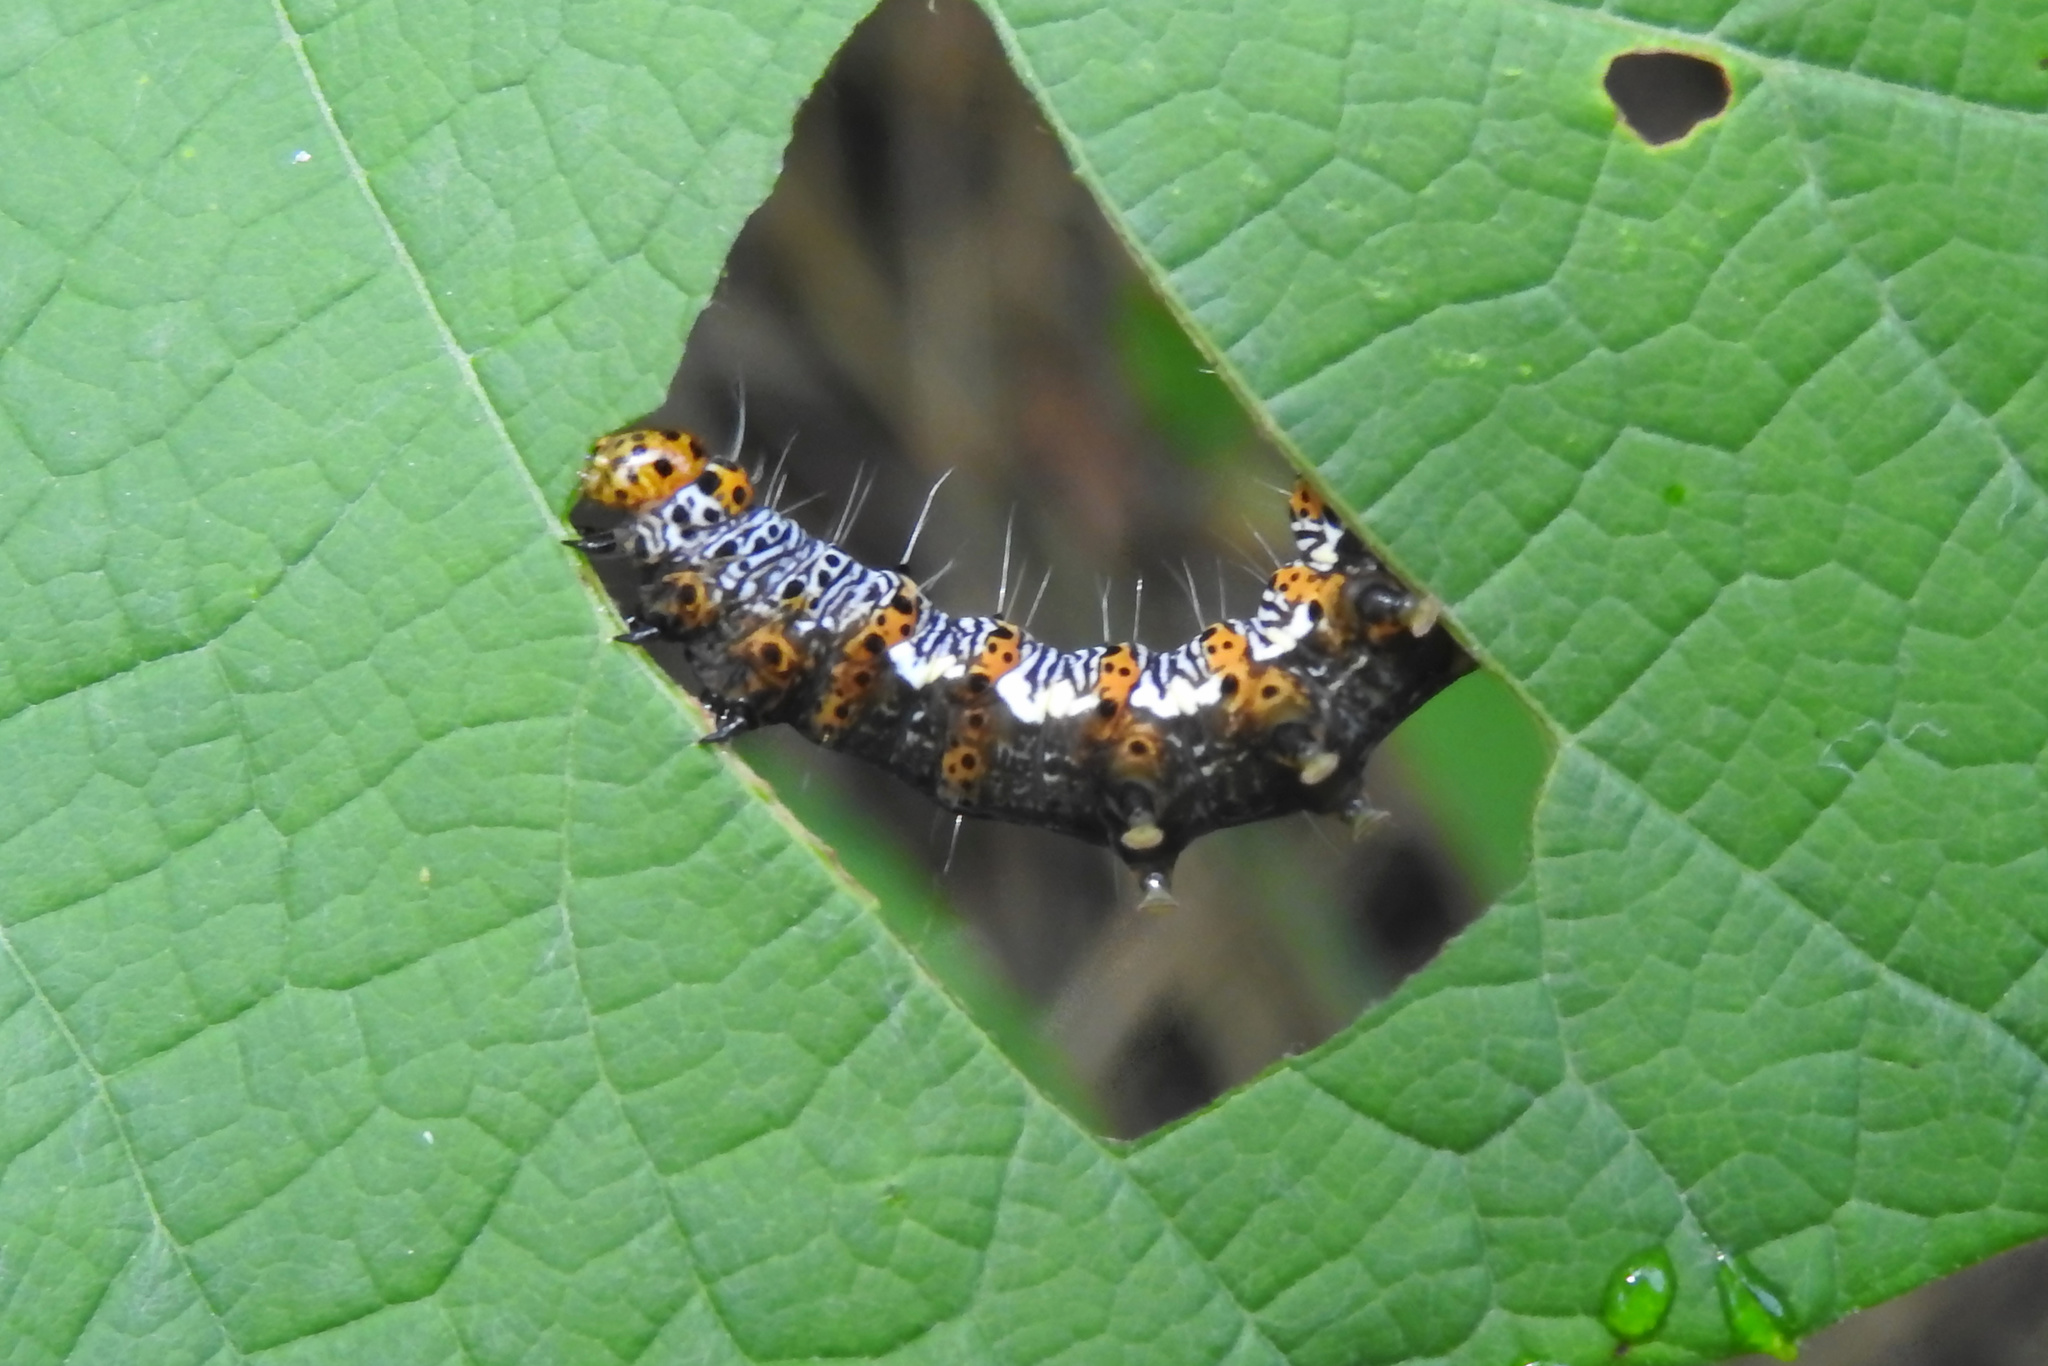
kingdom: Animalia
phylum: Arthropoda
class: Insecta
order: Lepidoptera
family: Noctuidae
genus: Alypia
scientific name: Alypia octomaculata
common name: Eight-spotted forester
